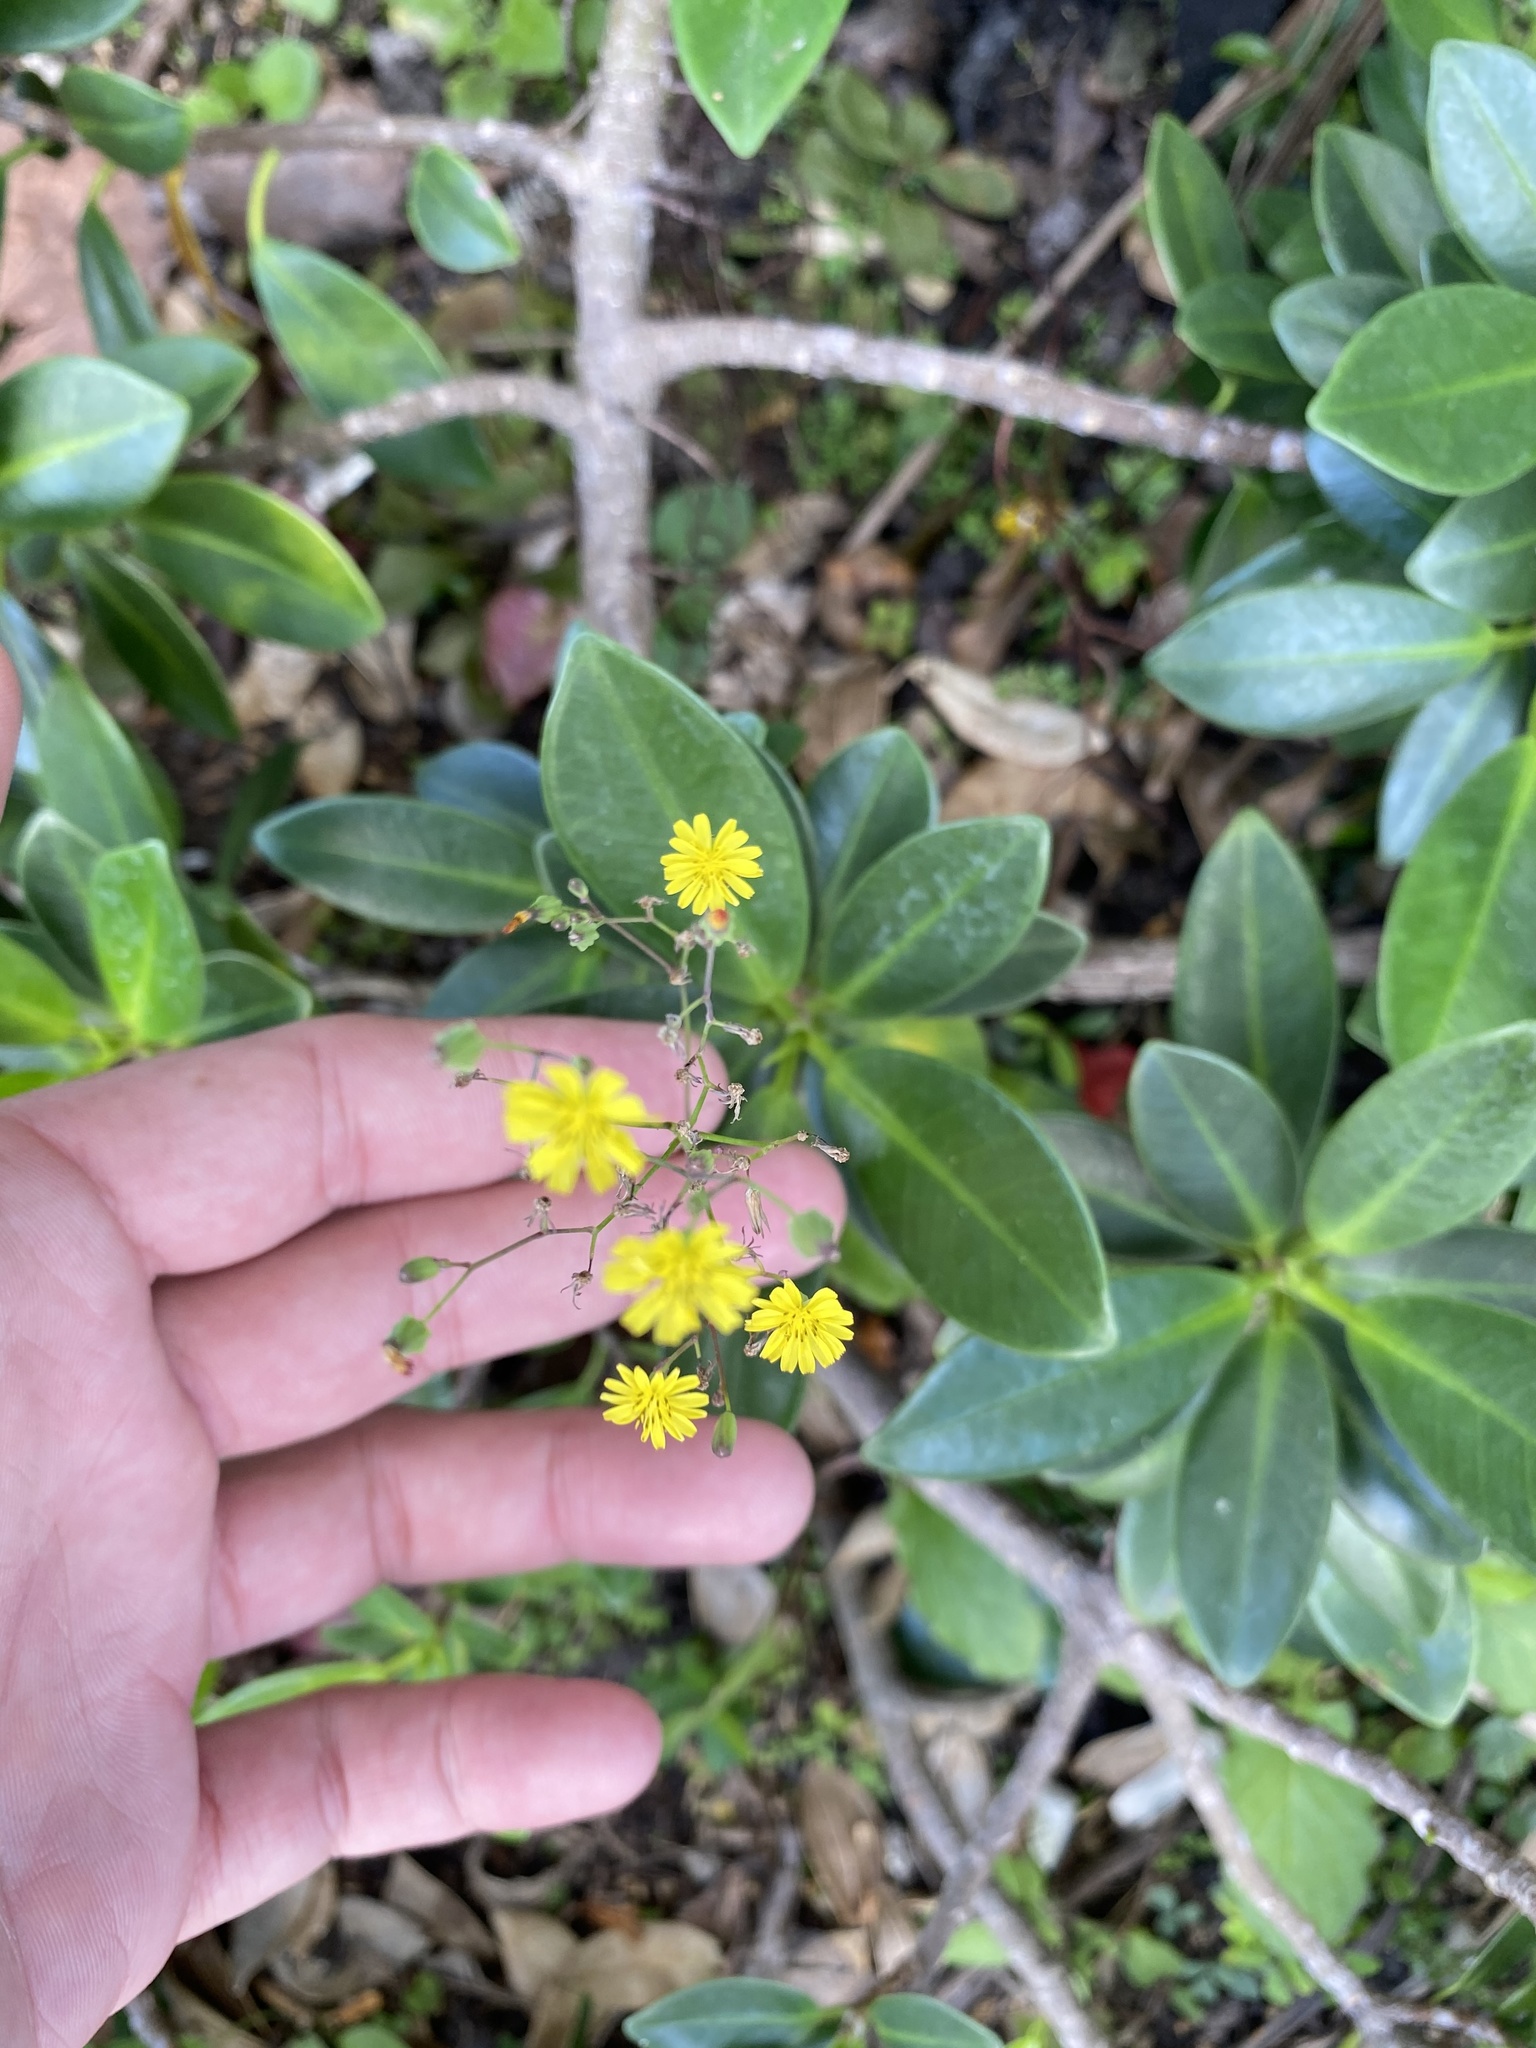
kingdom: Plantae
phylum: Tracheophyta
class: Magnoliopsida
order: Asterales
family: Asteraceae
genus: Youngia
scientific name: Youngia japonica
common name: Oriental false hawksbeard
